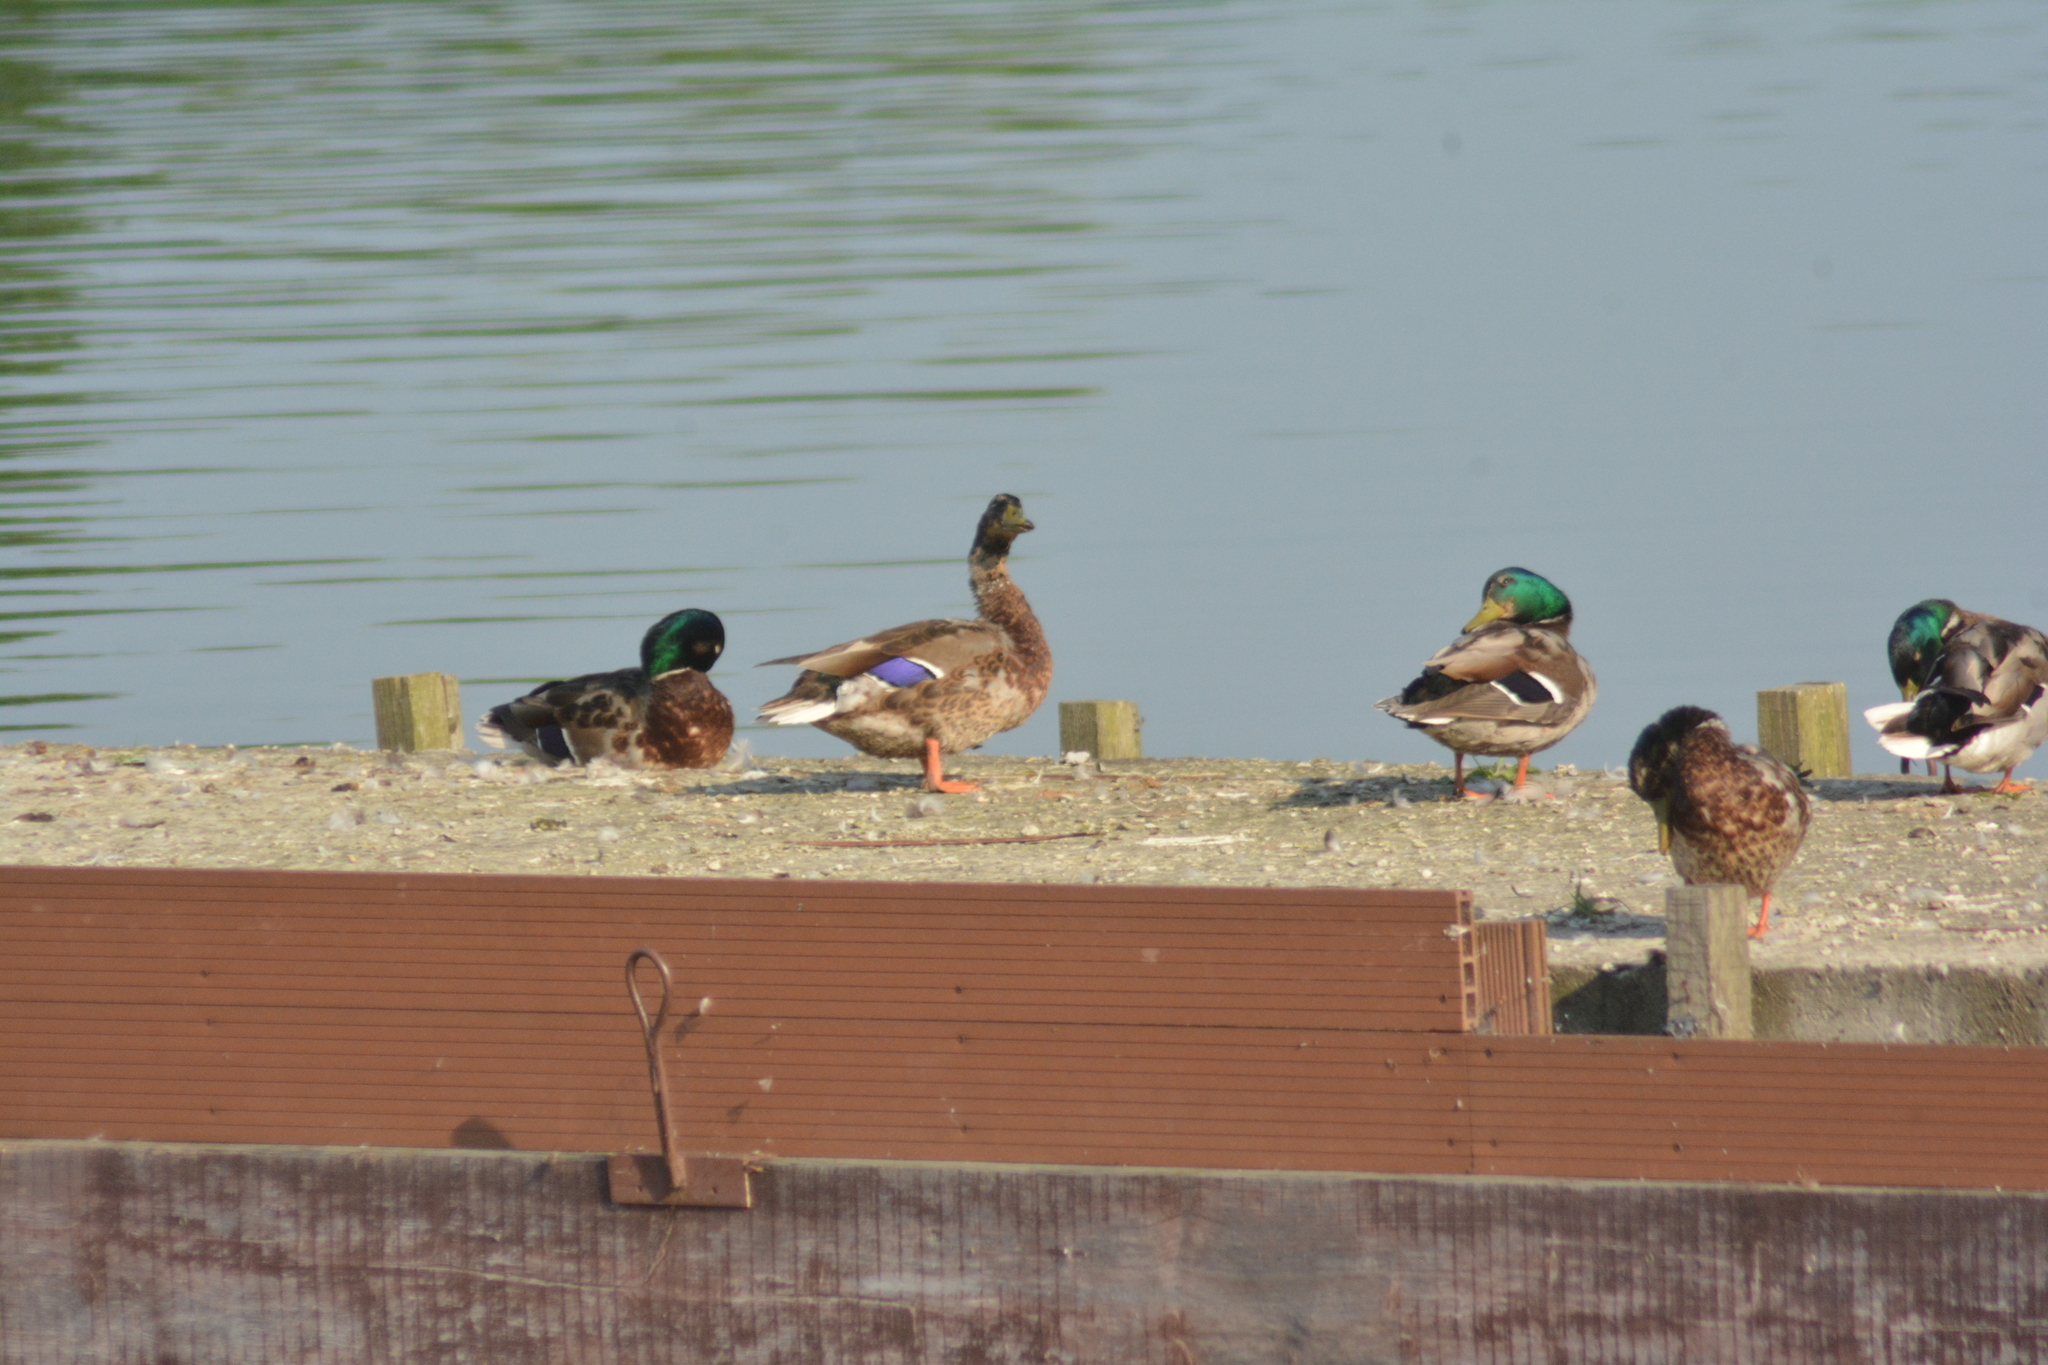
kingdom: Animalia
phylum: Chordata
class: Aves
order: Anseriformes
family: Anatidae
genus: Anas
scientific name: Anas platyrhynchos
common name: Mallard
